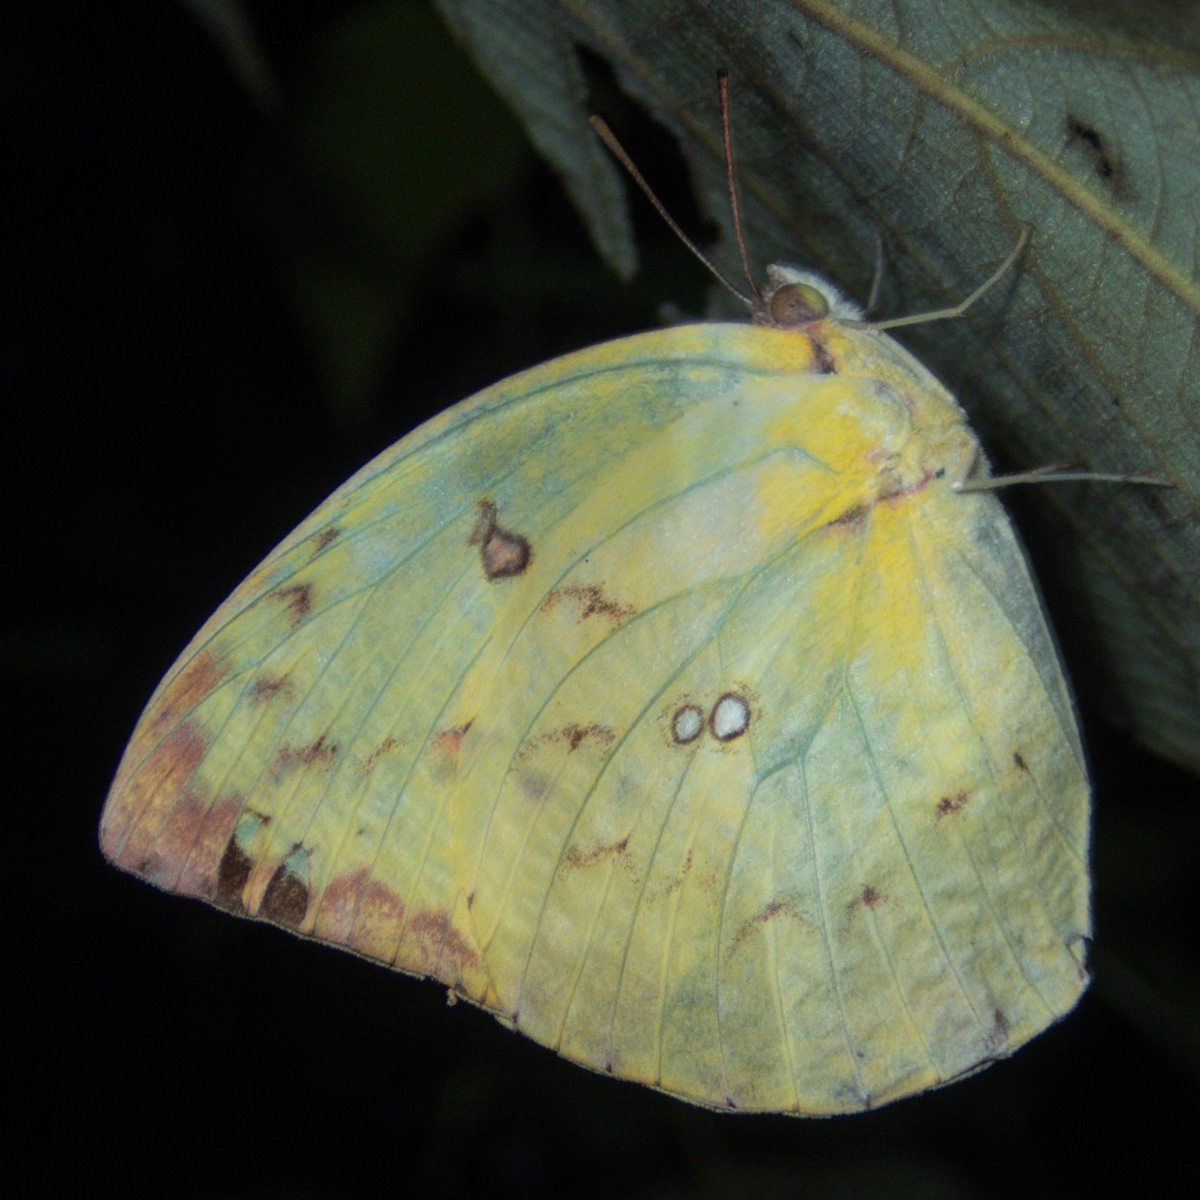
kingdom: Animalia
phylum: Arthropoda
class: Insecta
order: Lepidoptera
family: Pieridae
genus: Catopsilia
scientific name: Catopsilia pomona
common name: Common emigrant
